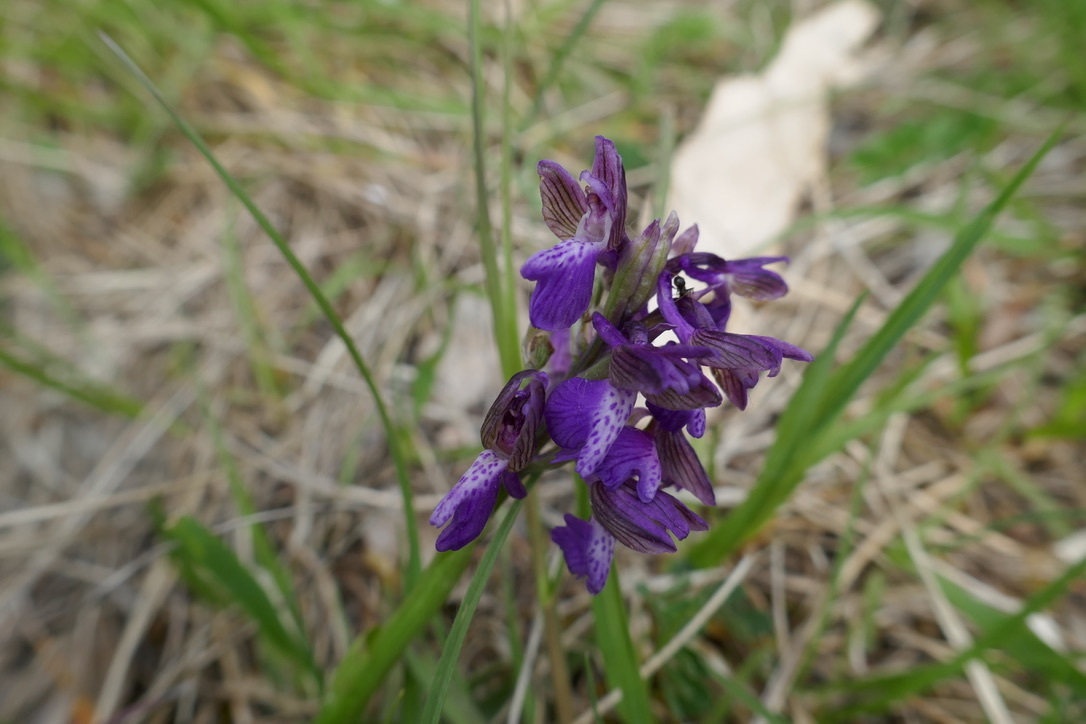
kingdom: Plantae
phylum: Tracheophyta
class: Liliopsida
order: Asparagales
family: Orchidaceae
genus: Anacamptis
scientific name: Anacamptis morio
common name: Green-winged orchid
